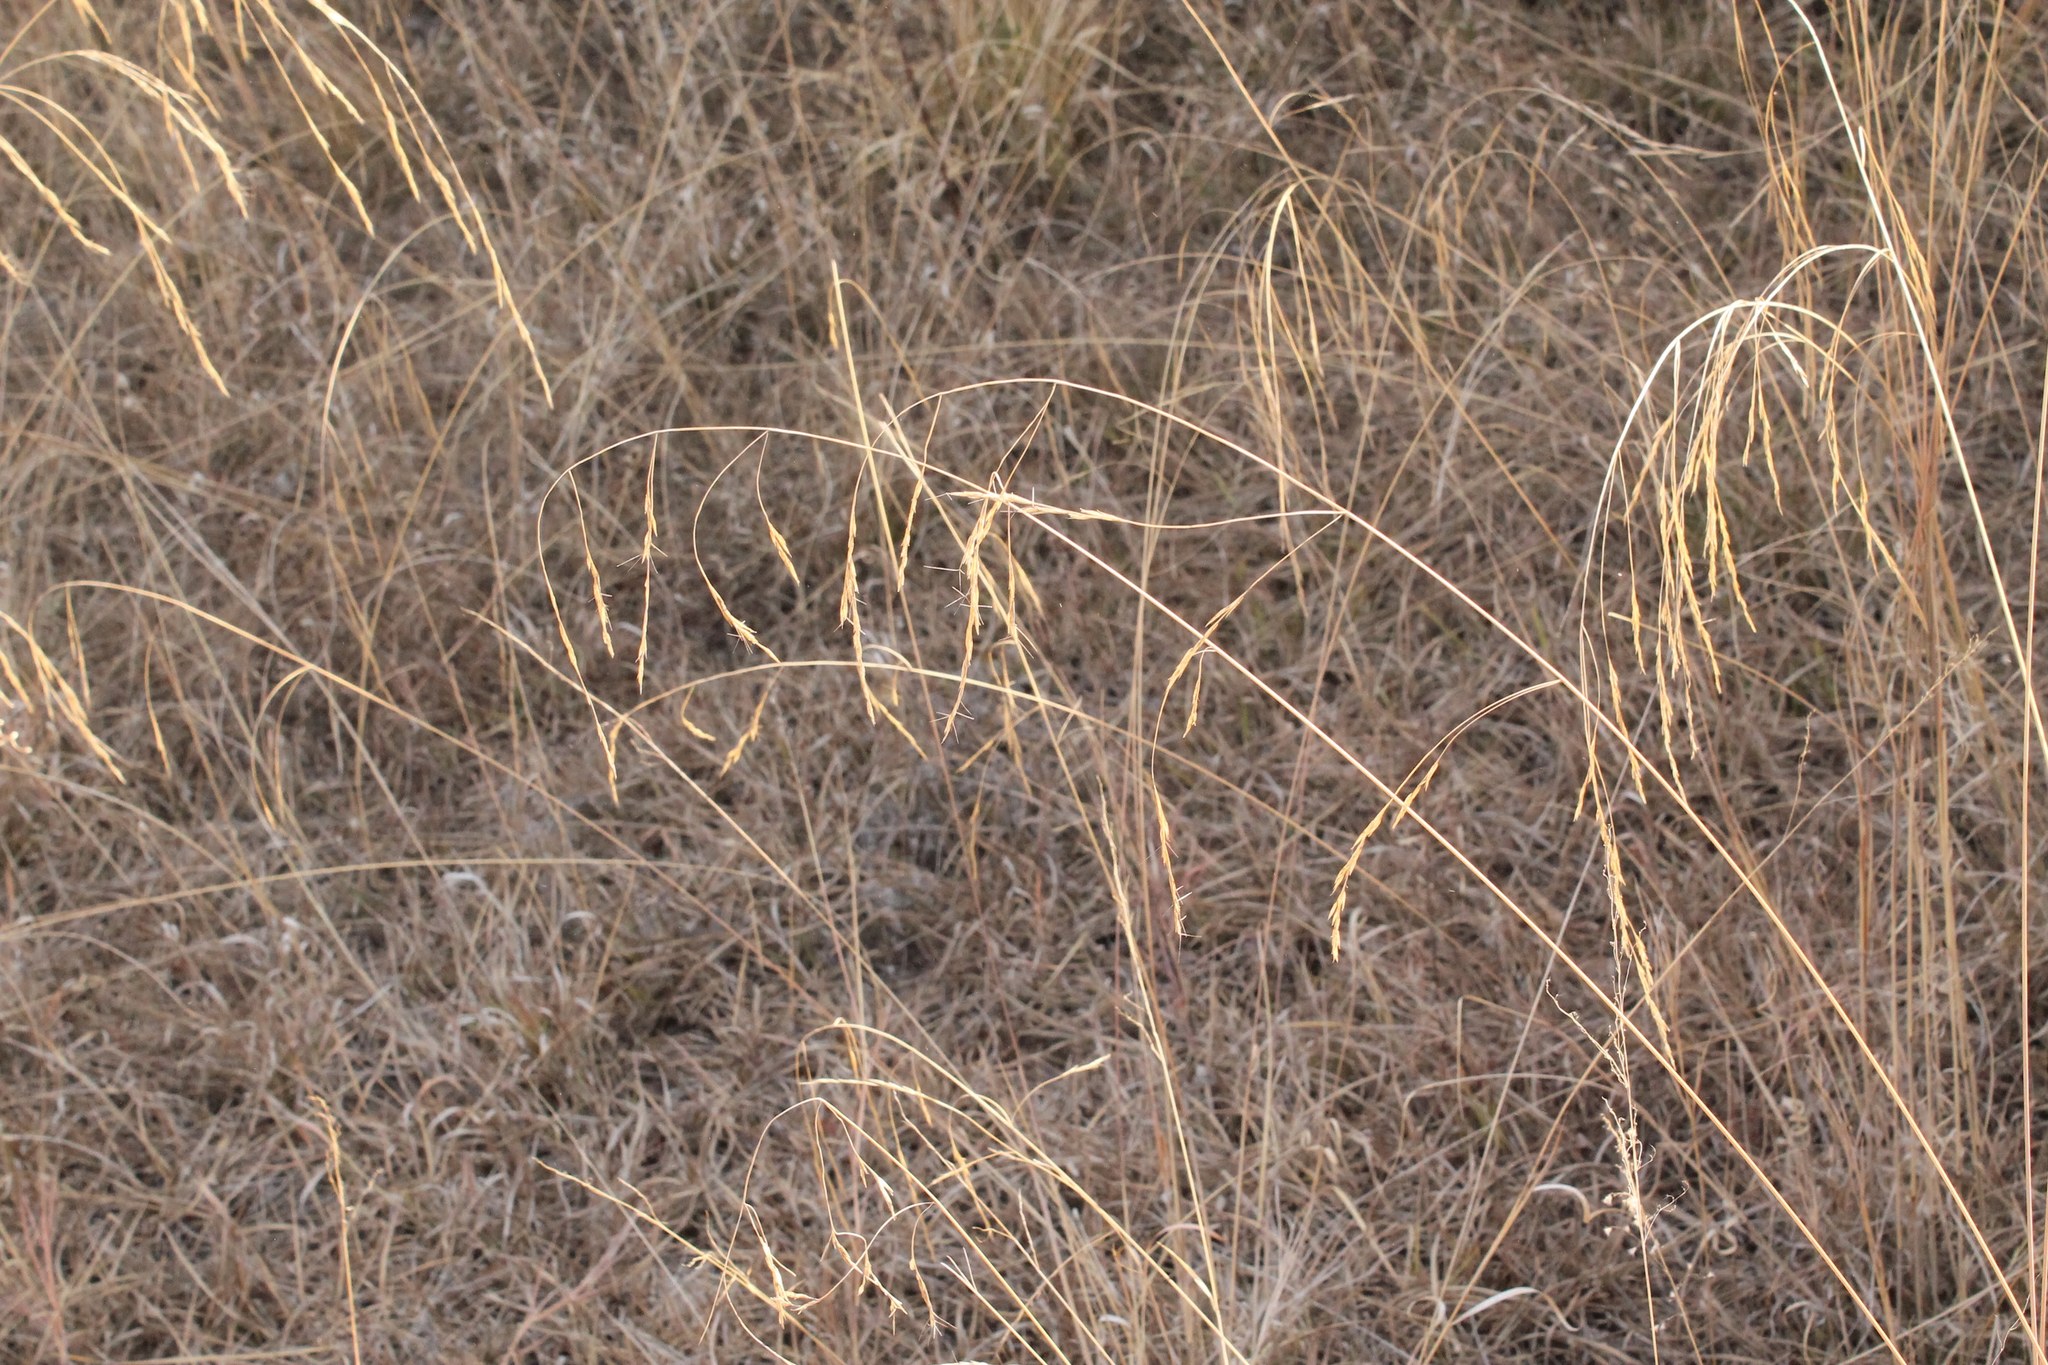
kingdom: Plantae
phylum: Tracheophyta
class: Liliopsida
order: Poales
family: Poaceae
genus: Aristida
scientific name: Aristida divaricata
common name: Poverty grass
